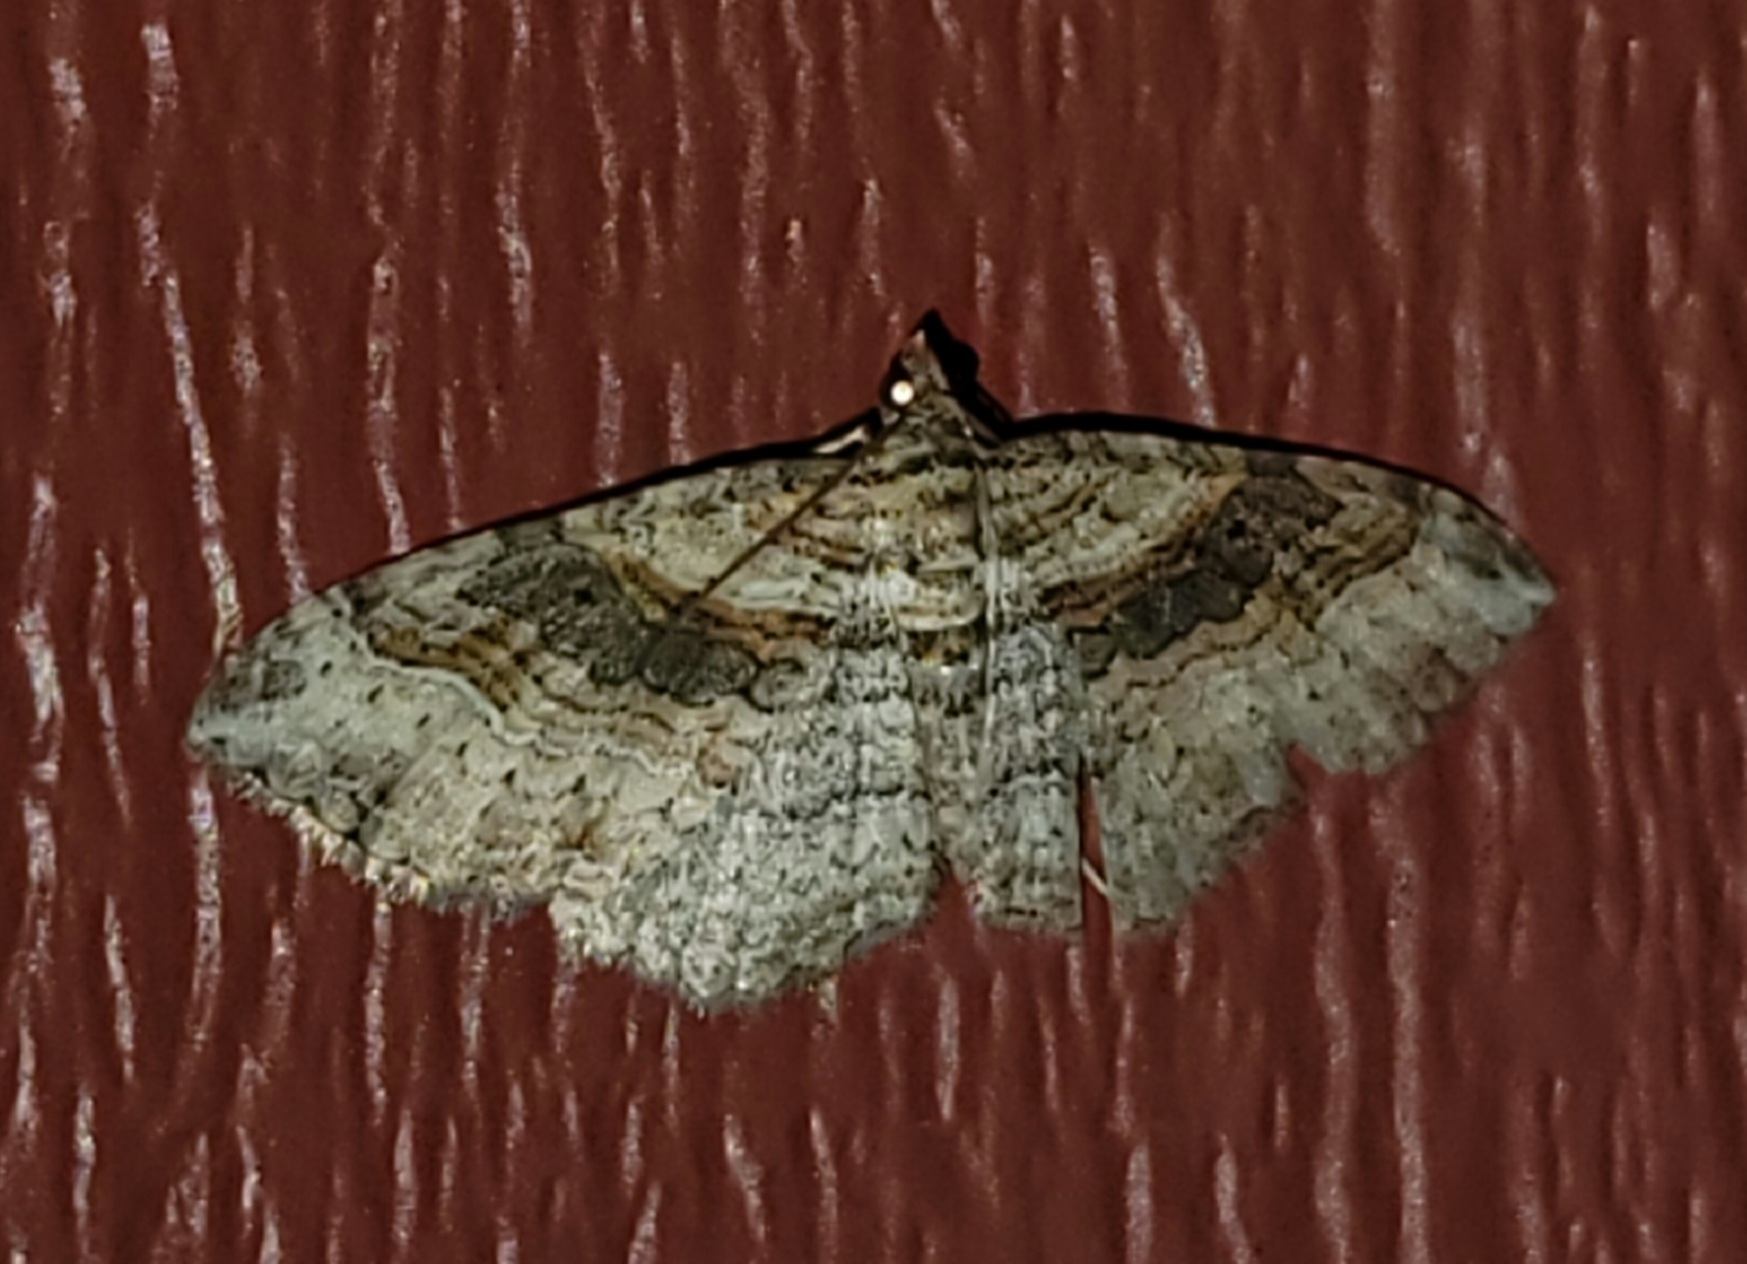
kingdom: Animalia
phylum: Arthropoda
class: Insecta
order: Lepidoptera
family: Geometridae
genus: Costaconvexa
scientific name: Costaconvexa centrostrigaria
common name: Bent-line carpet
